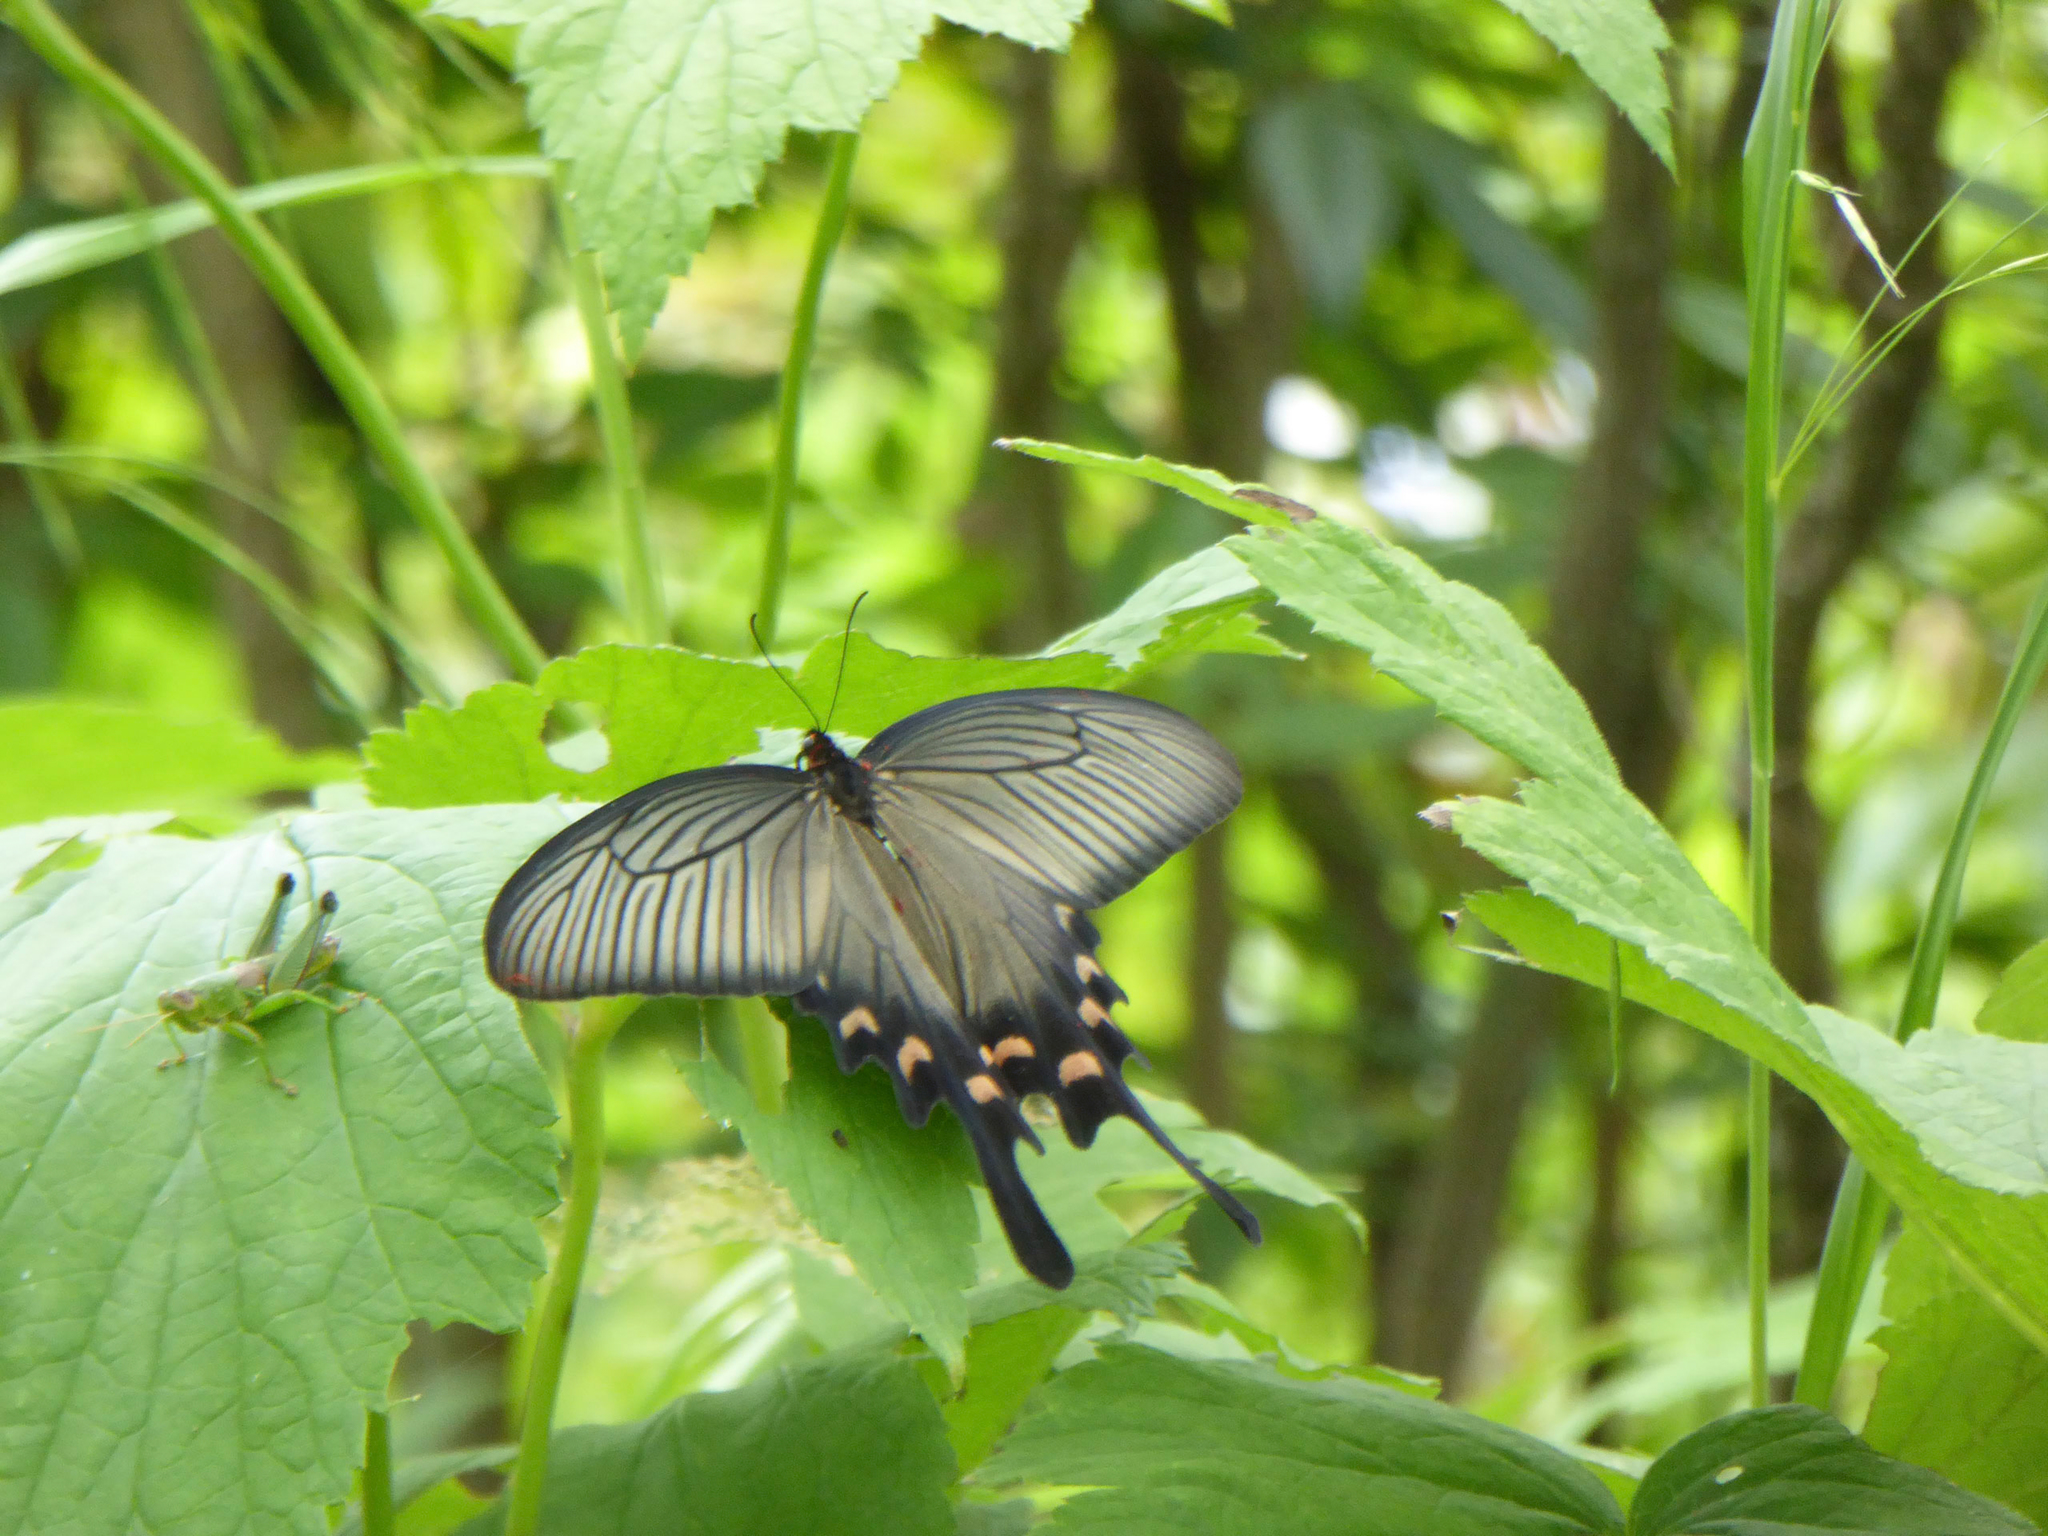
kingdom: Animalia
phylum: Arthropoda
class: Insecta
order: Lepidoptera
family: Papilionidae
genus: Byasa
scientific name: Byasa alcinous
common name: Chinese windmill
